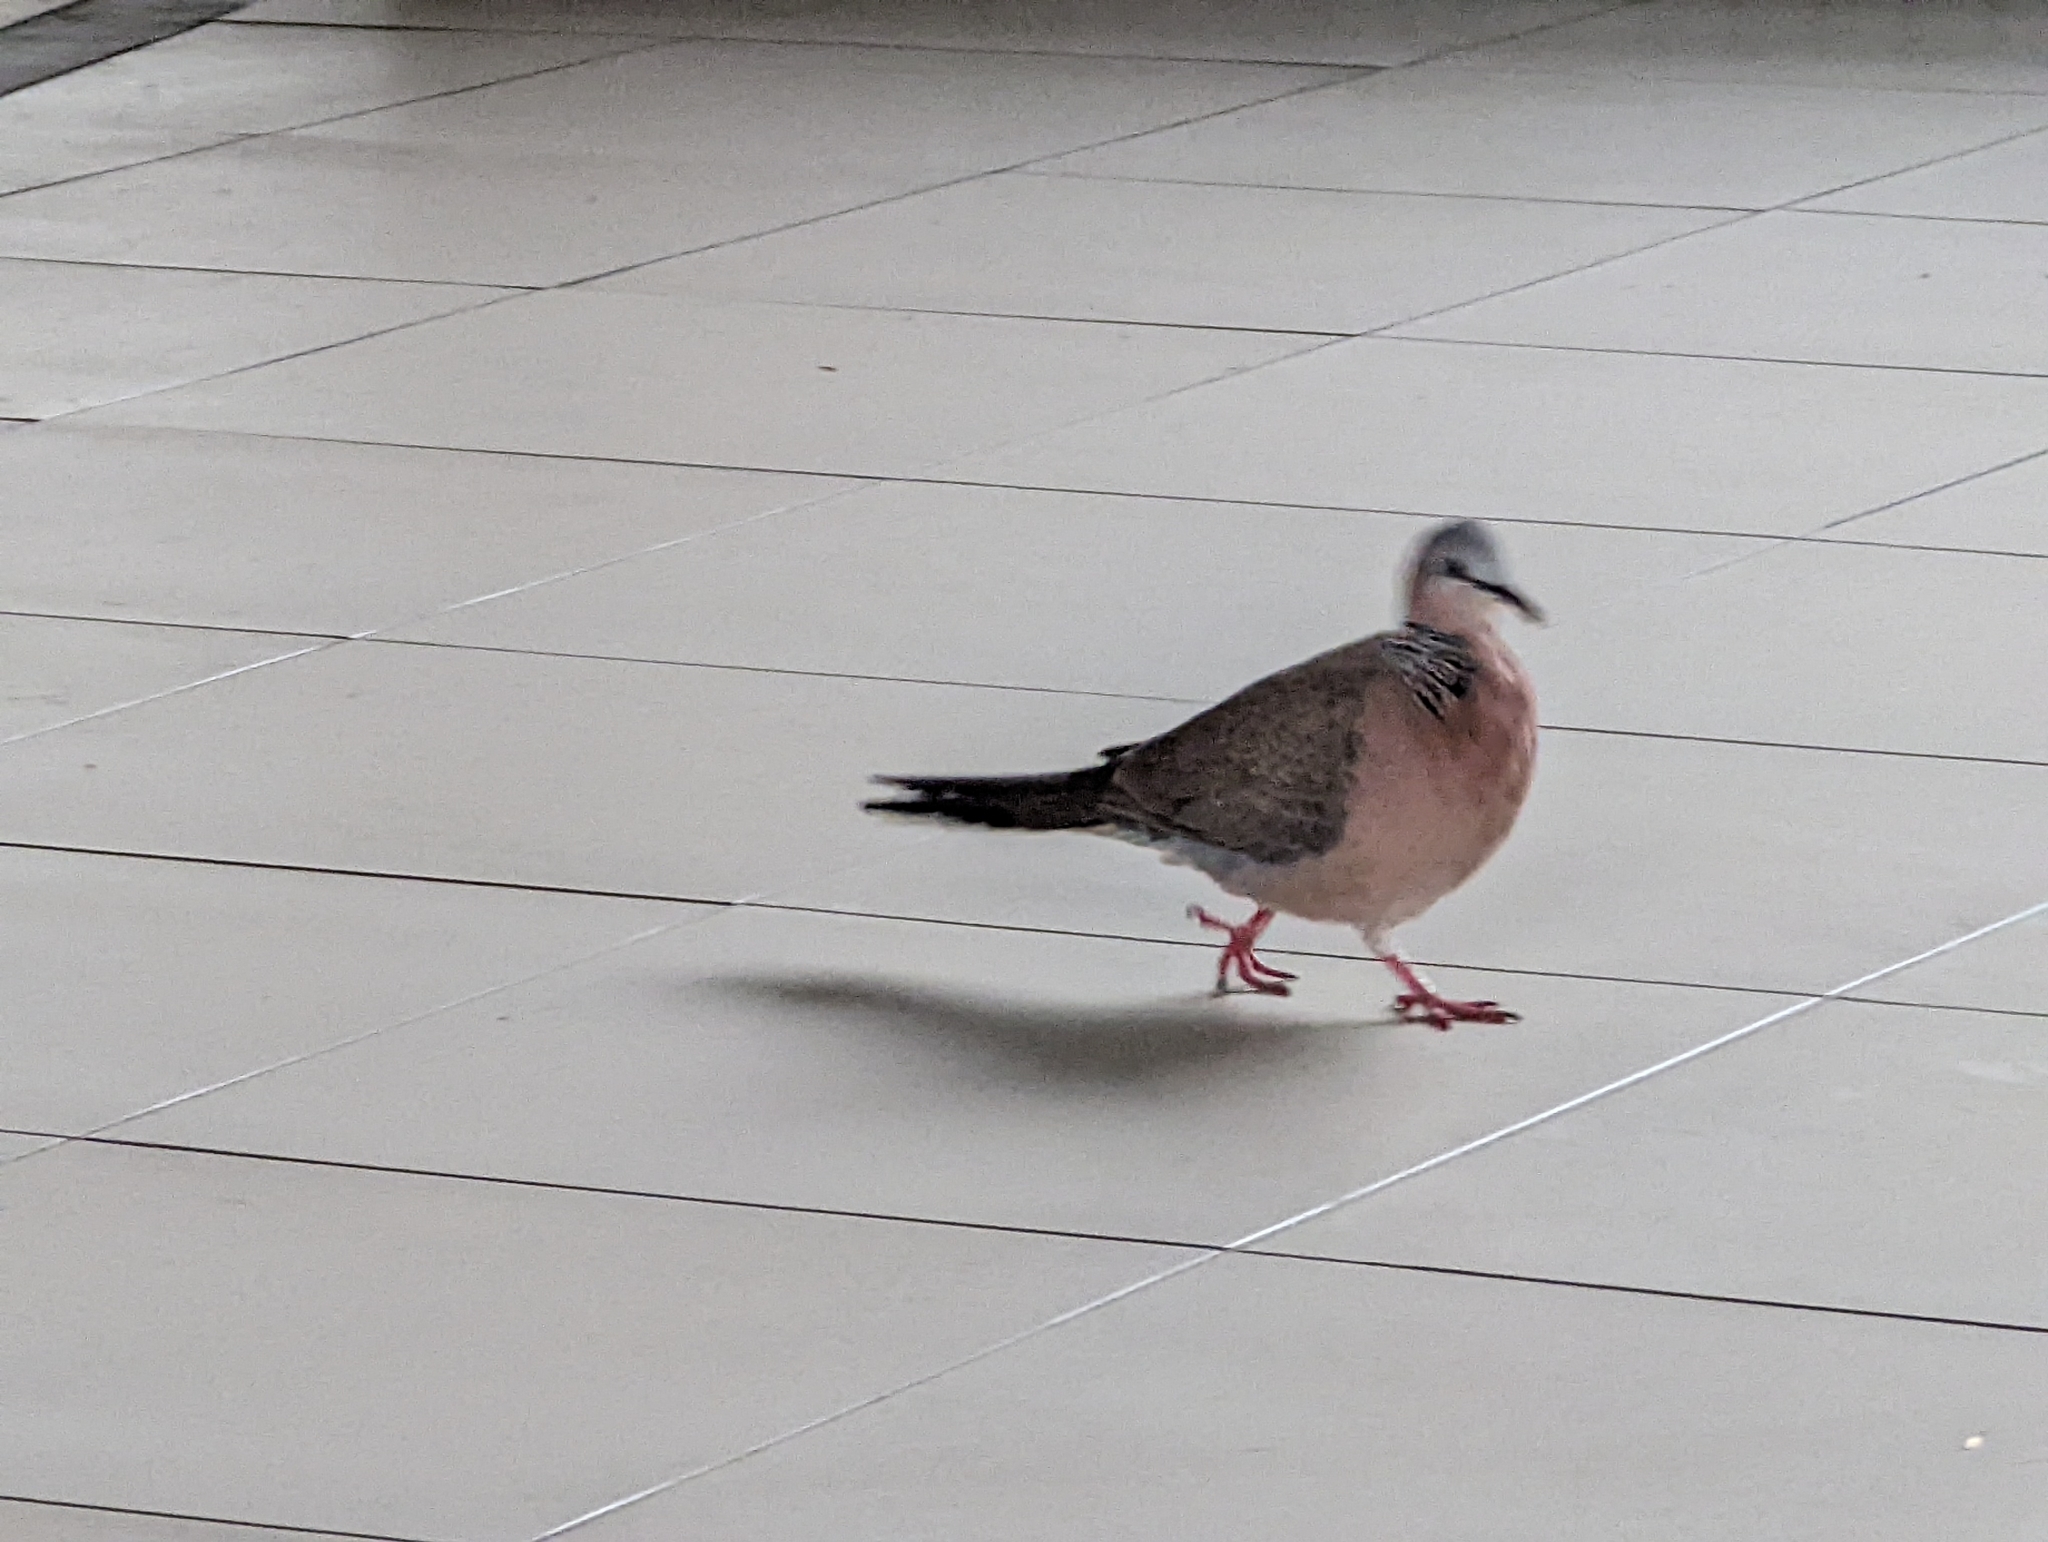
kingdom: Animalia
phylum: Chordata
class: Aves
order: Columbiformes
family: Columbidae
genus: Spilopelia
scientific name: Spilopelia chinensis
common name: Spotted dove
